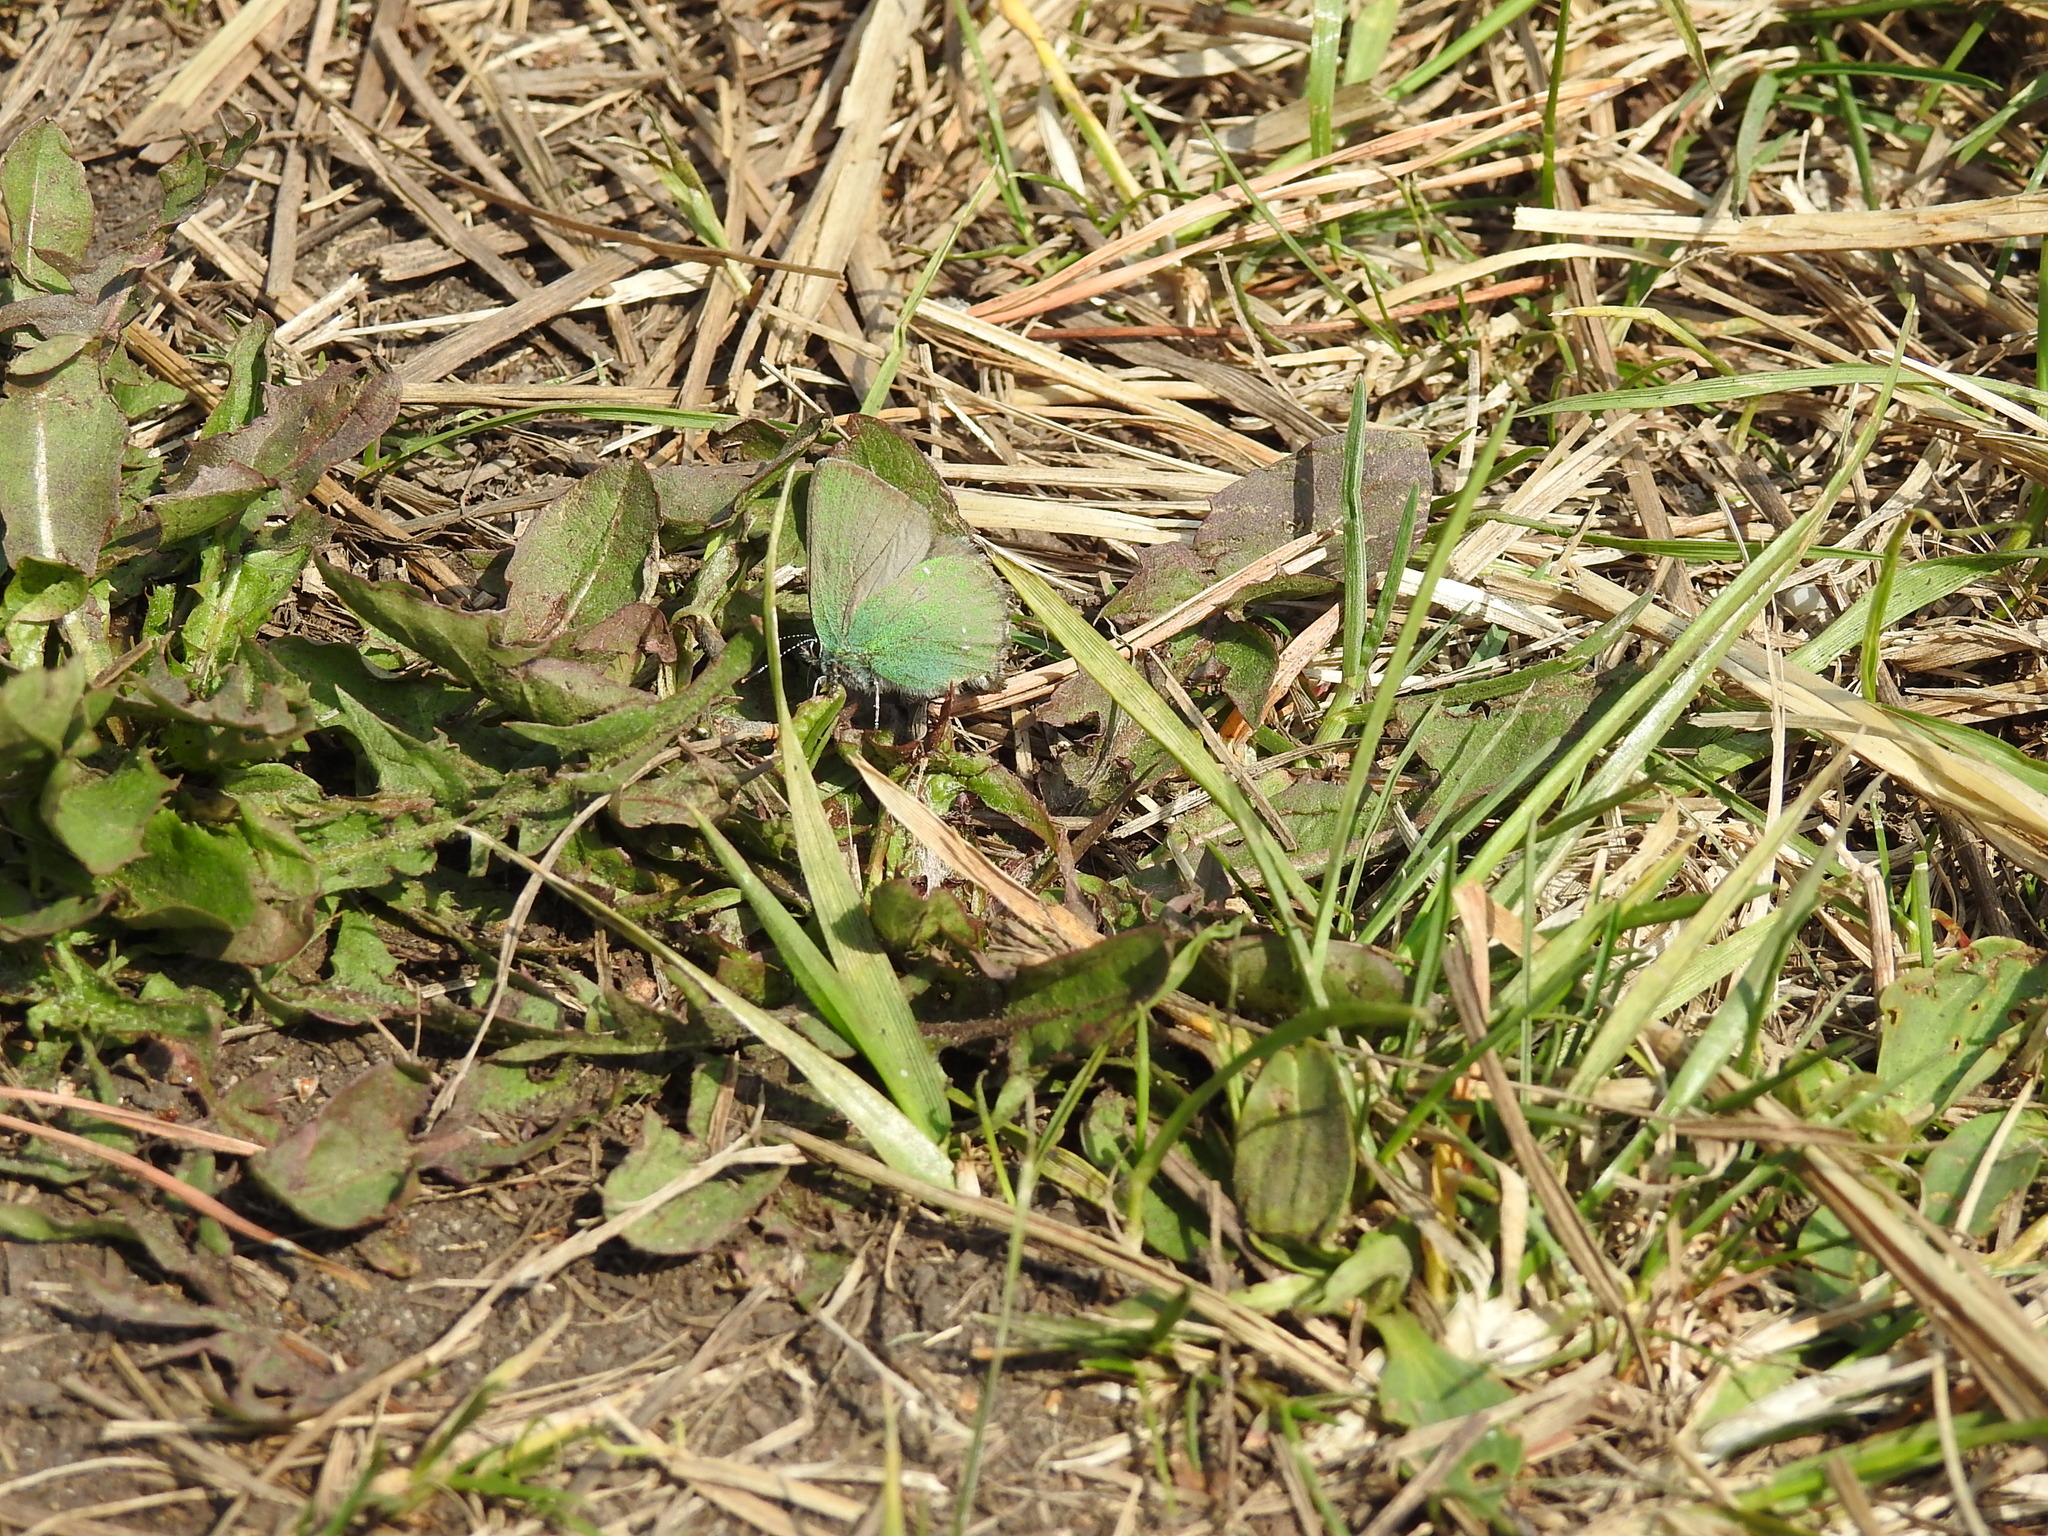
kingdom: Animalia
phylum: Arthropoda
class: Insecta
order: Lepidoptera
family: Lycaenidae
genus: Callophrys
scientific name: Callophrys rubi
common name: Green hairstreak
